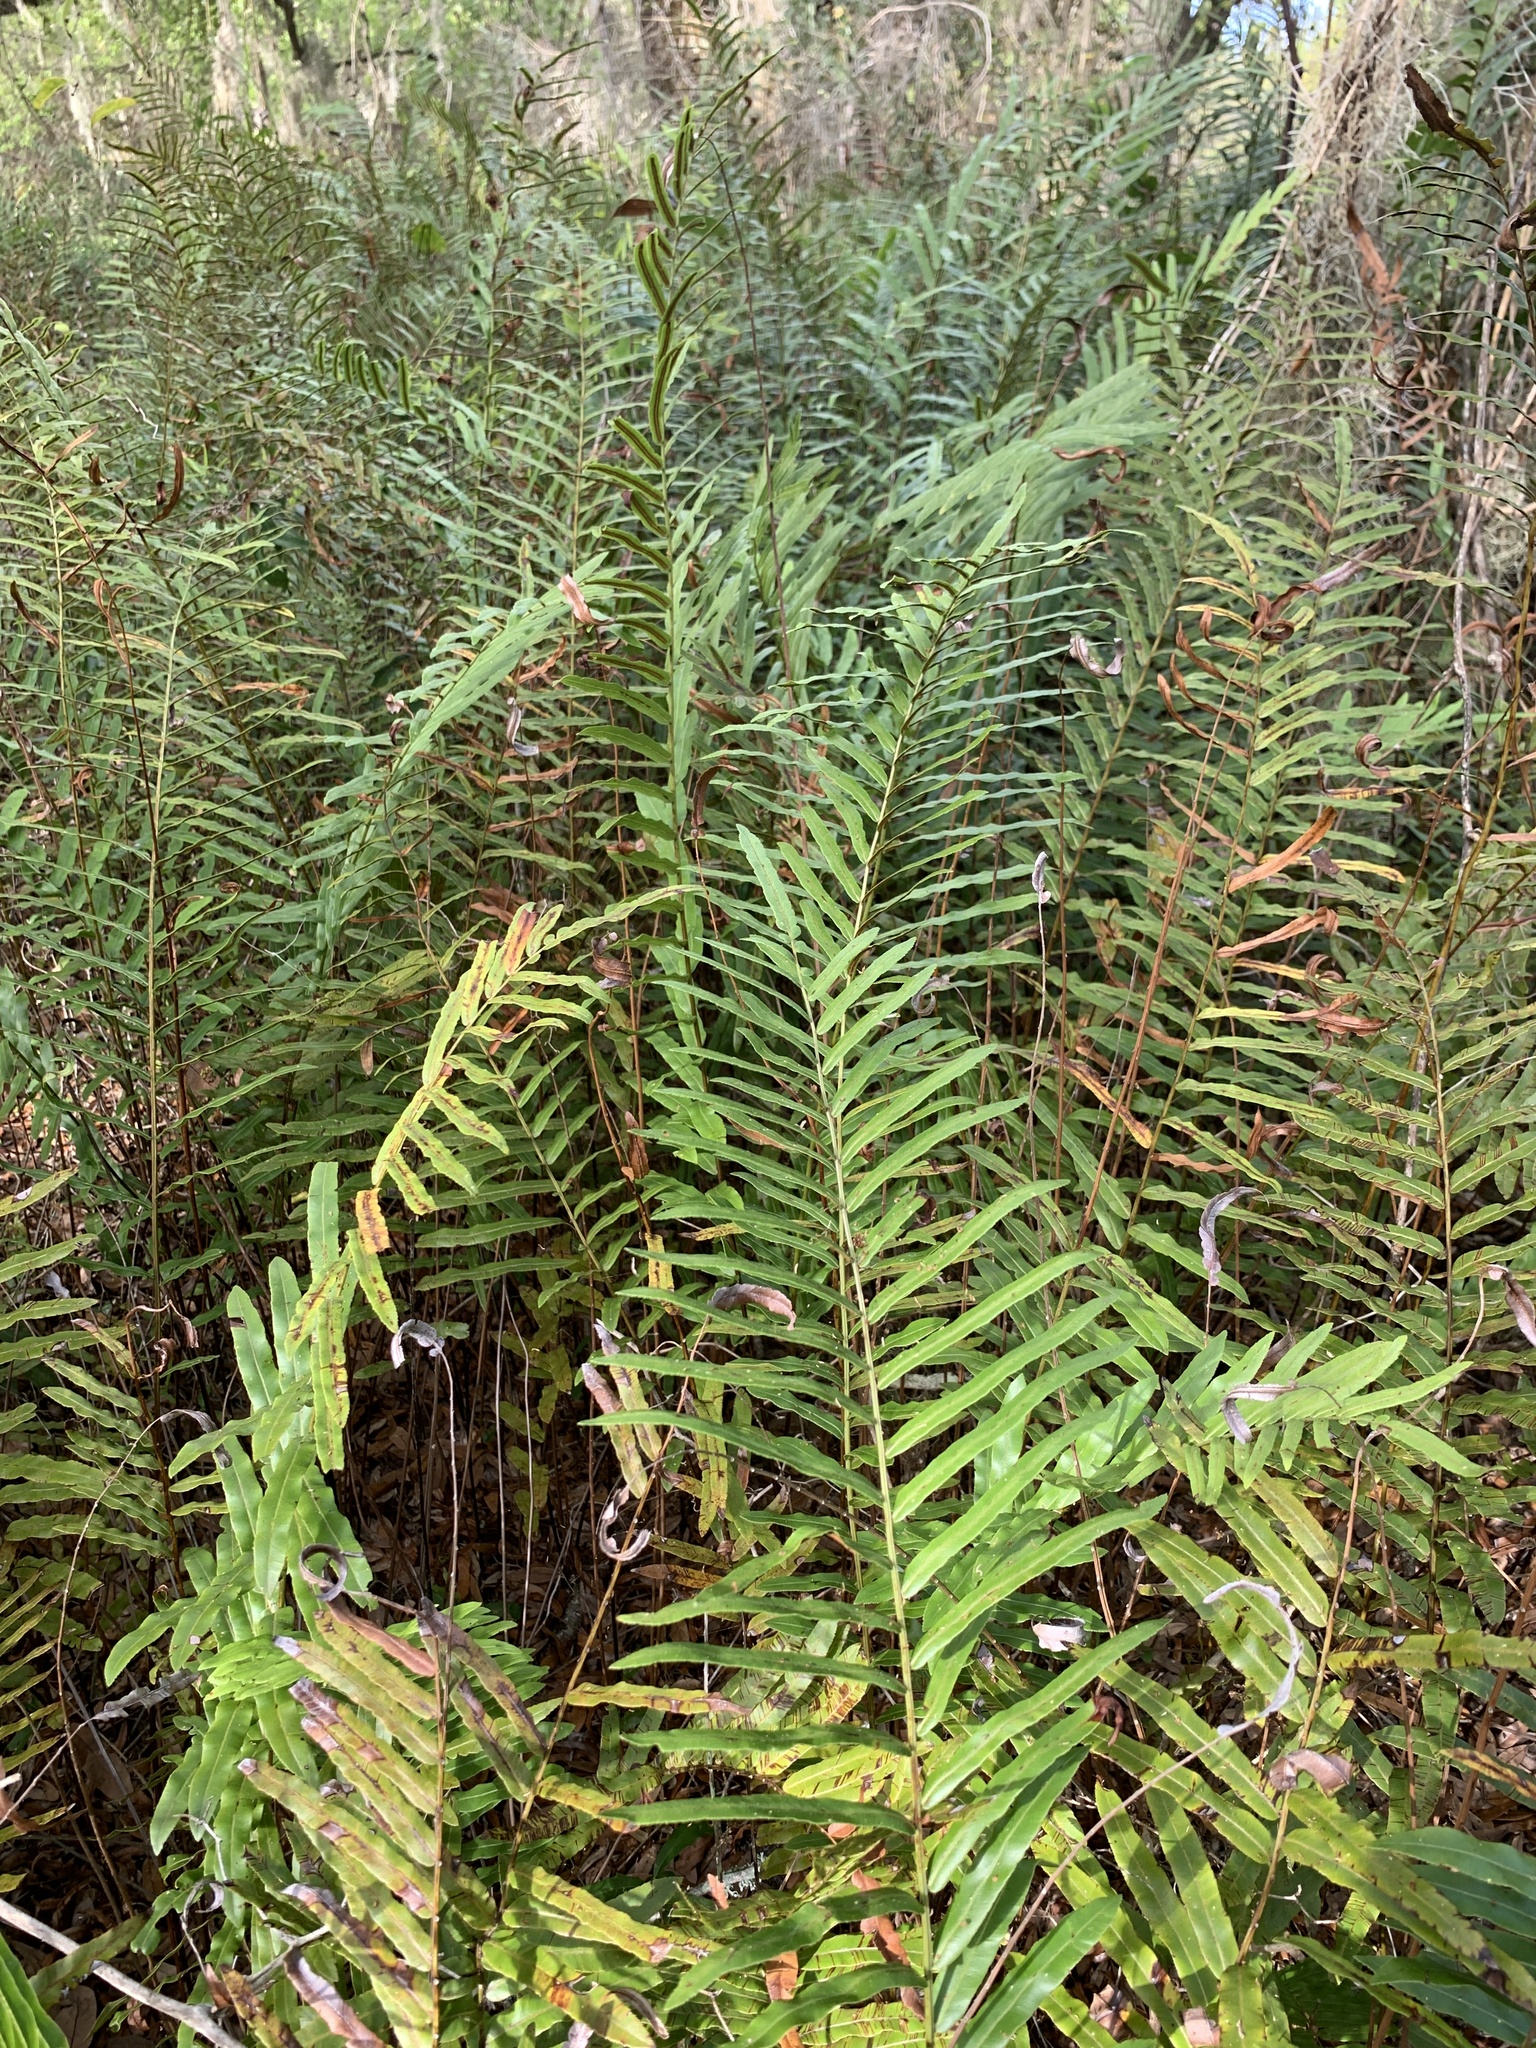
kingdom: Plantae
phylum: Tracheophyta
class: Polypodiopsida
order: Polypodiales
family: Blechnaceae
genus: Telmatoblechnum
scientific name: Telmatoblechnum serrulatum
